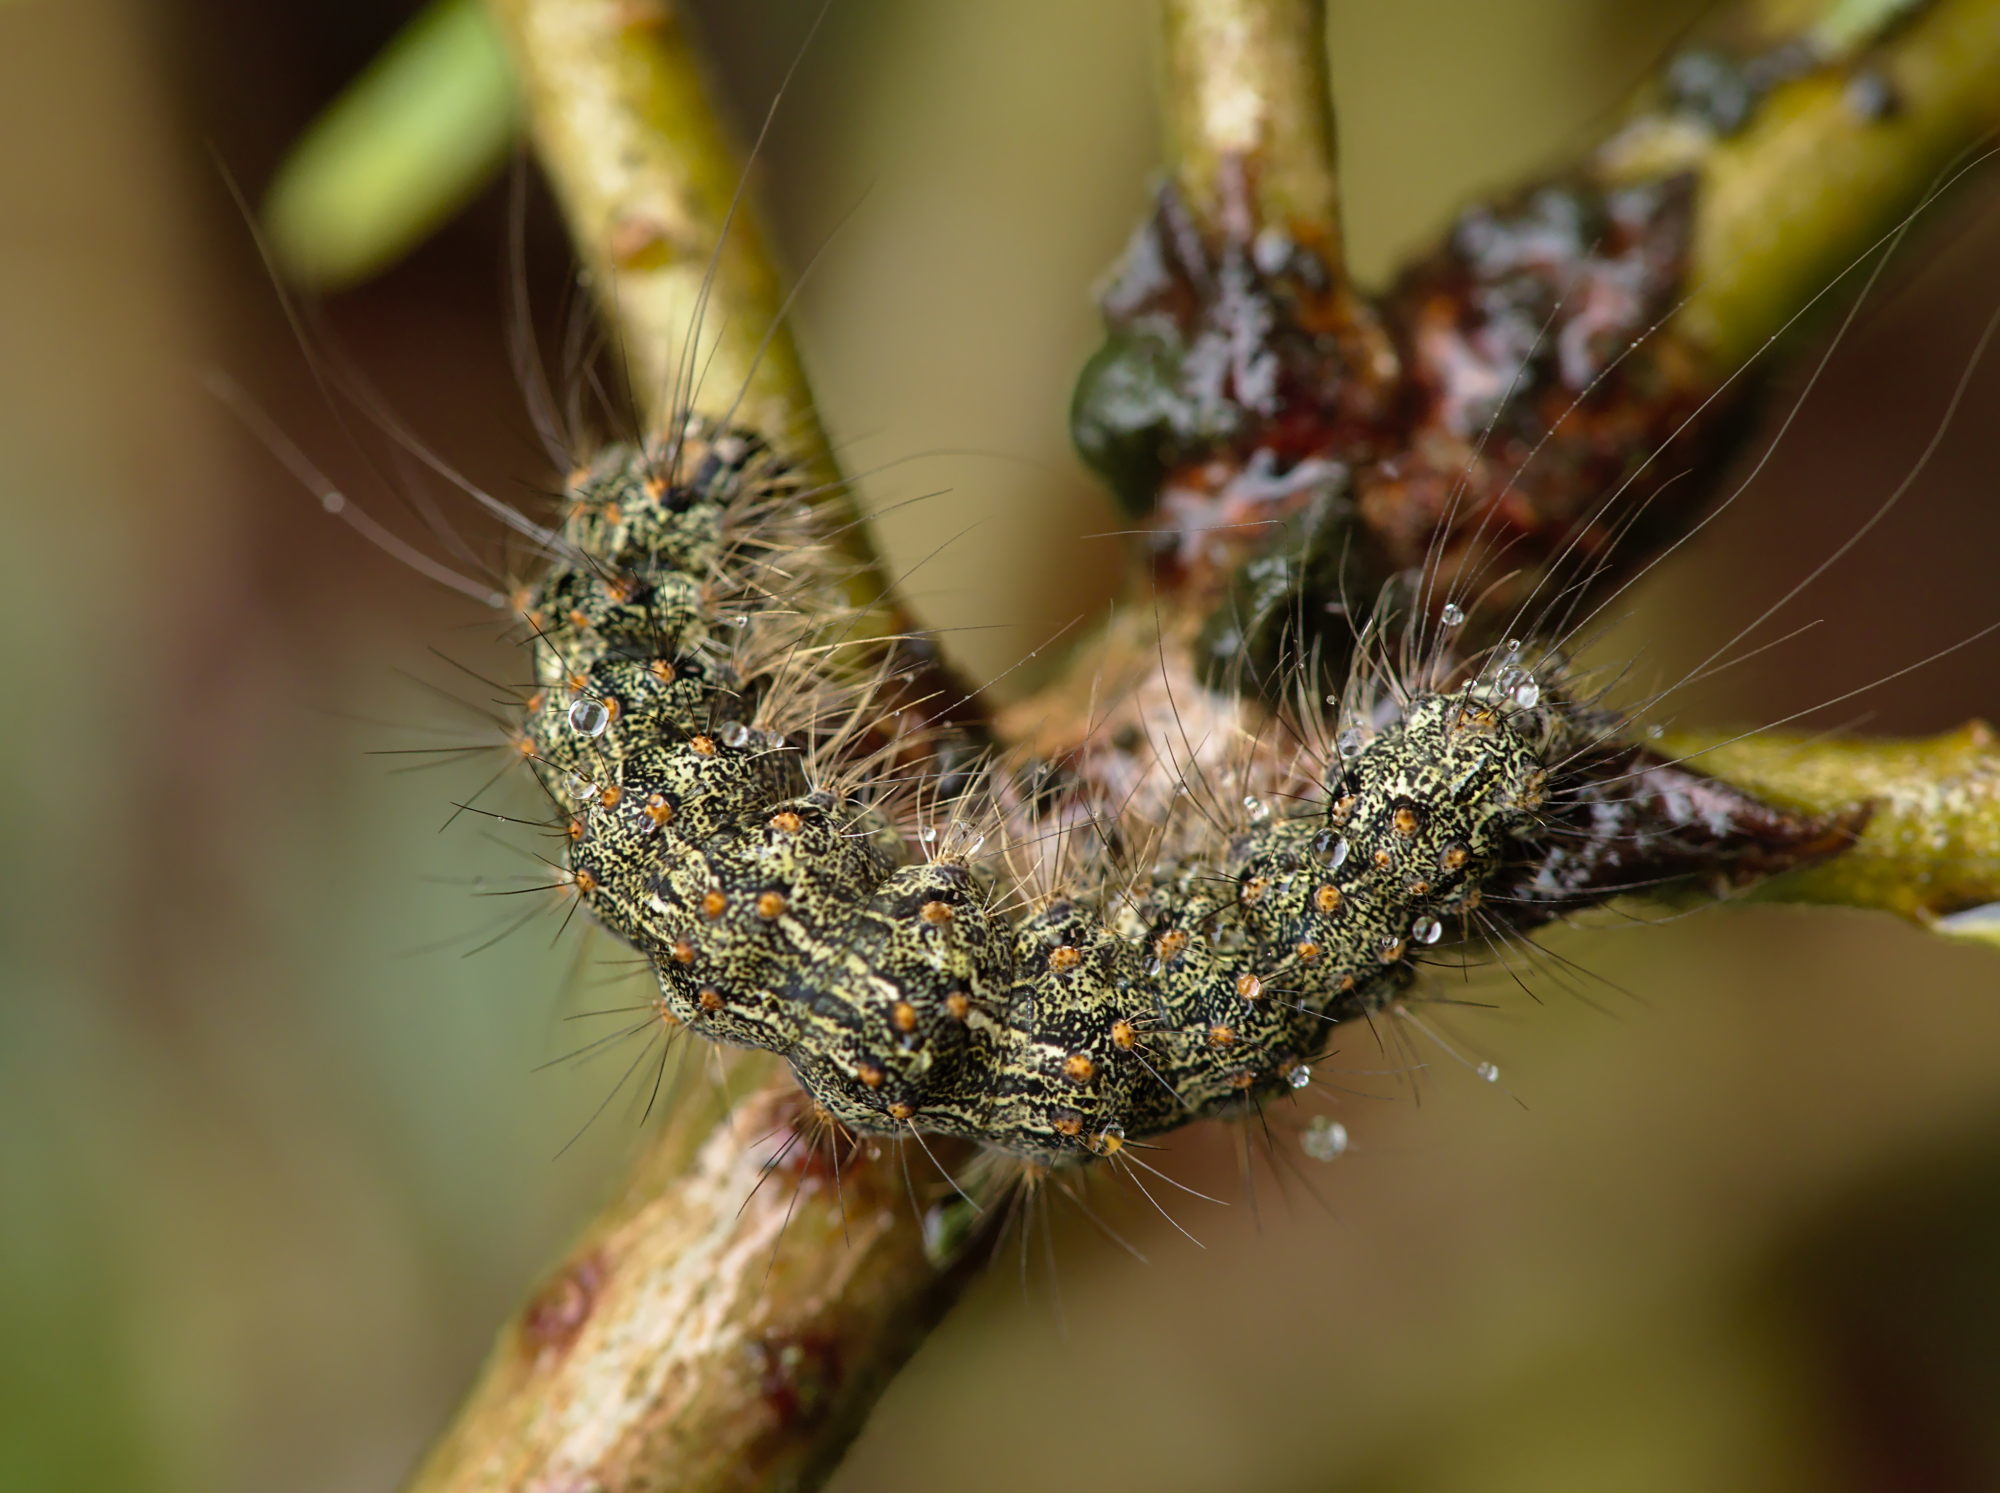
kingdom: Animalia
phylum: Arthropoda
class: Insecta
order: Lepidoptera
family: Erebidae
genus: Atolmis
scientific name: Atolmis rubricollis
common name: Red-necked footman
